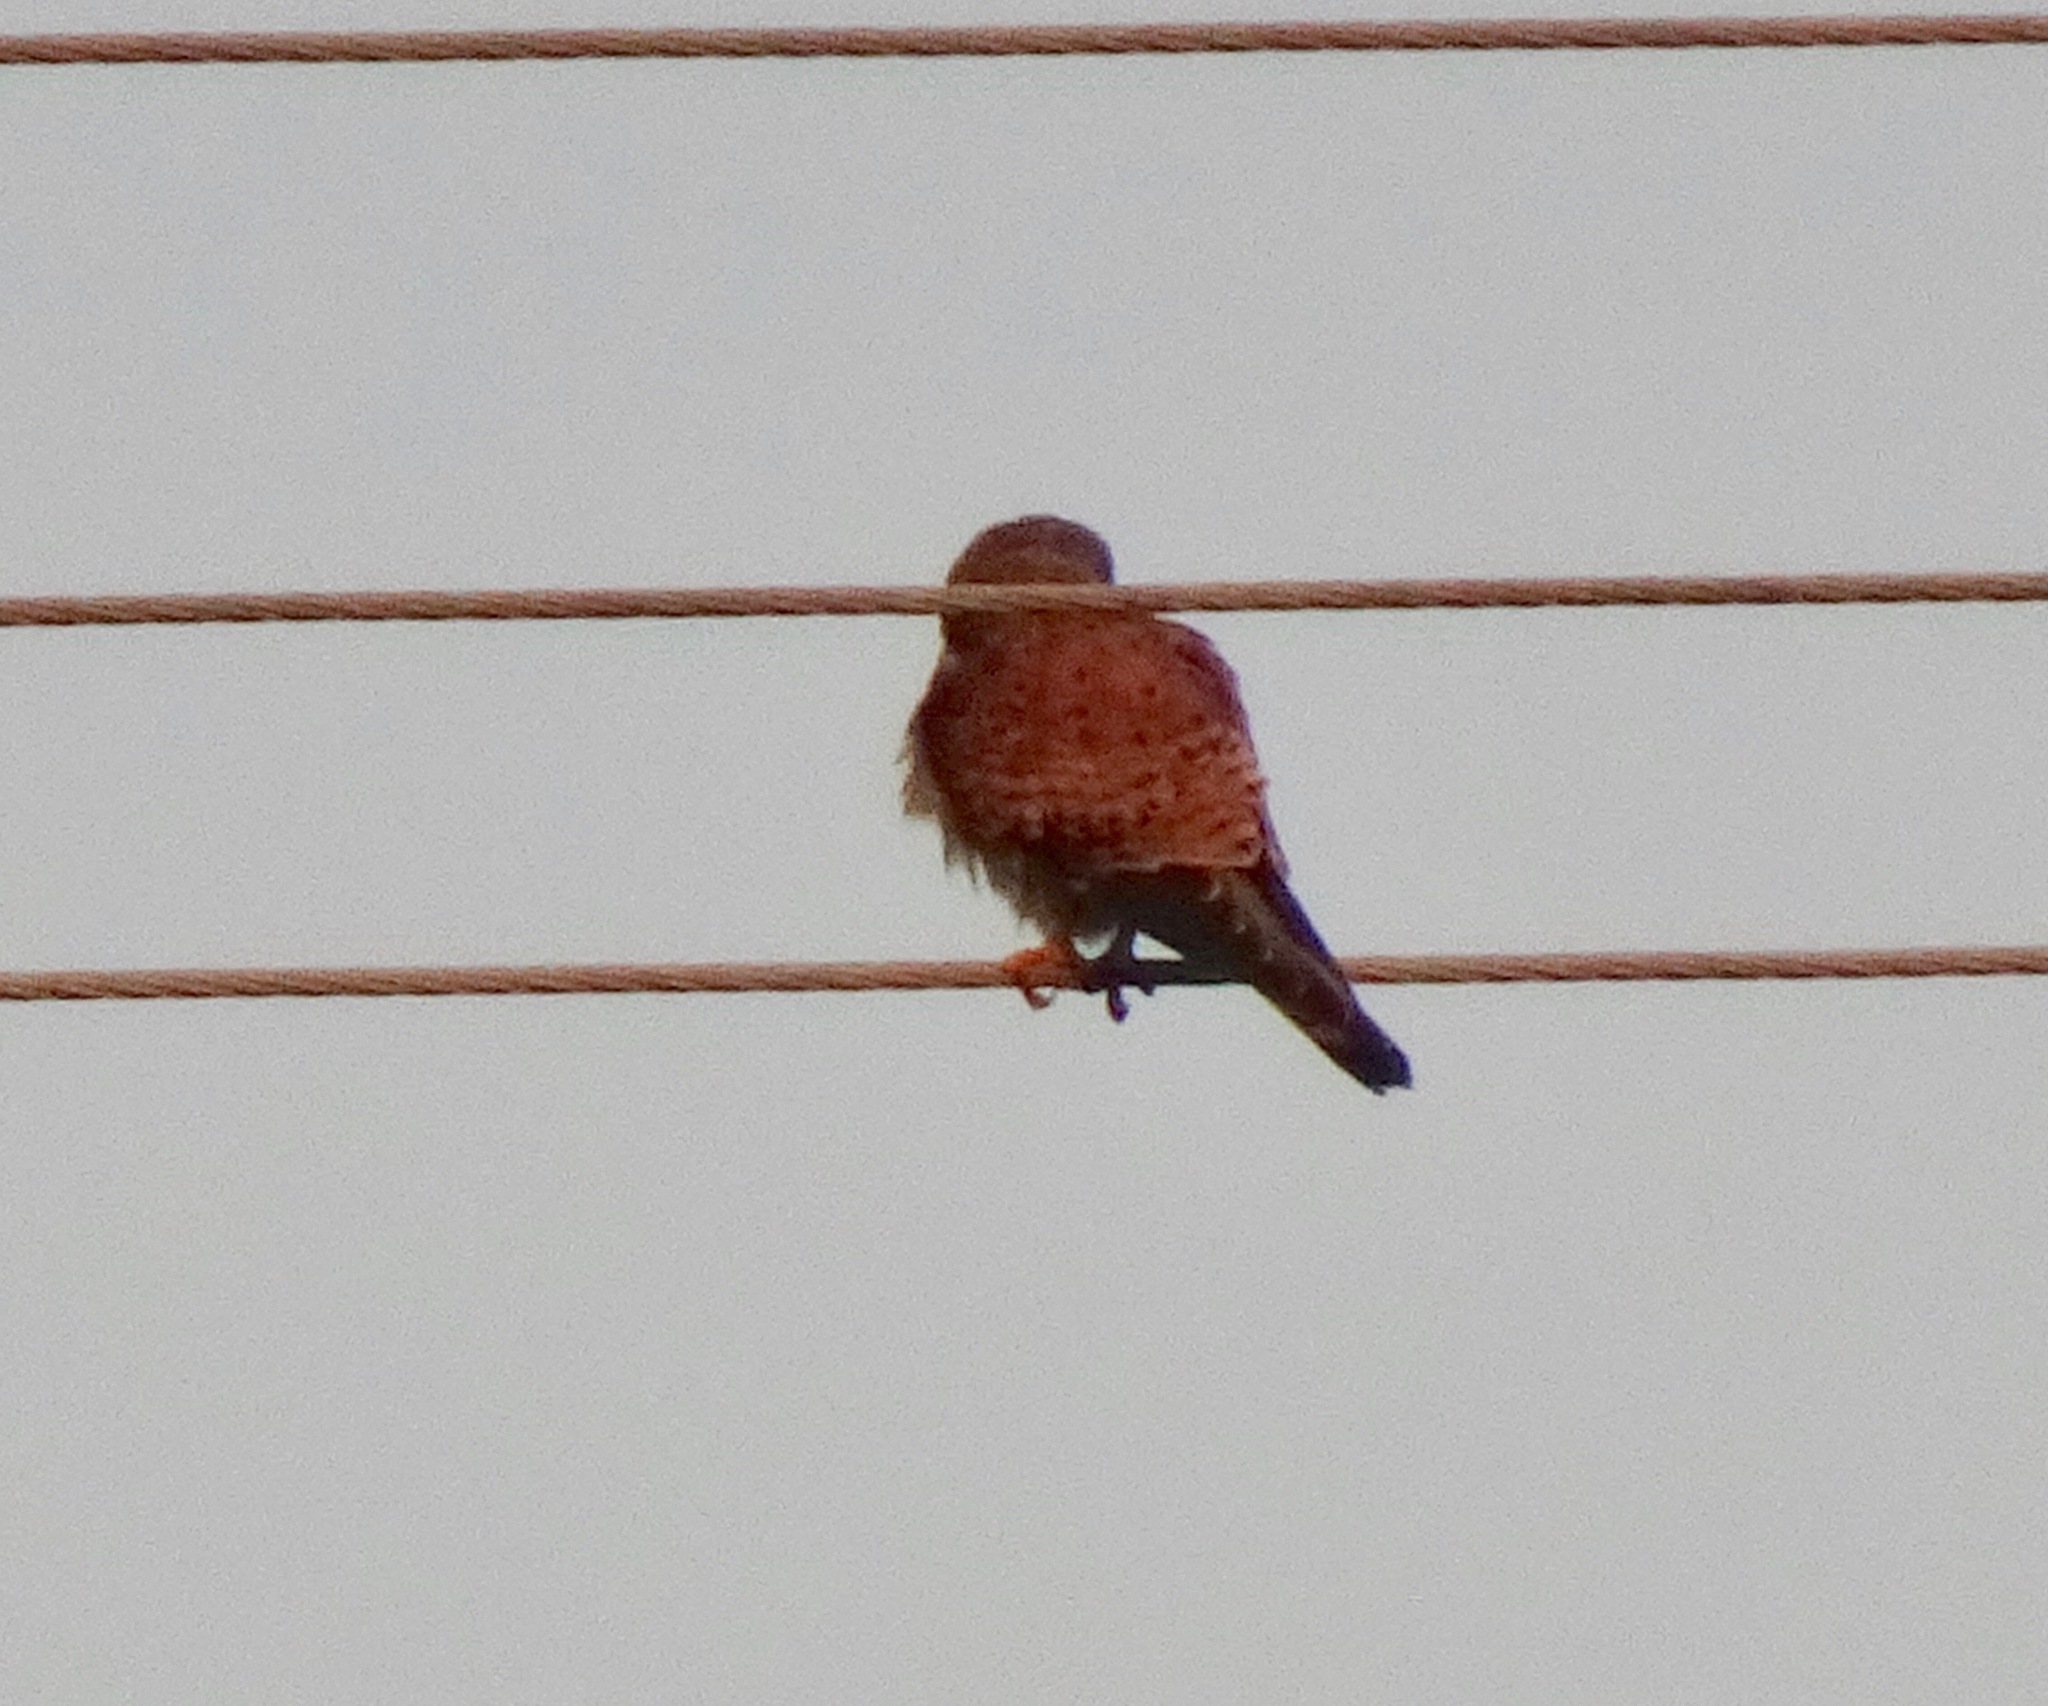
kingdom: Animalia
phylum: Chordata
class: Aves
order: Falconiformes
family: Falconidae
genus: Falco
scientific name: Falco tinnunculus
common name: Common kestrel
